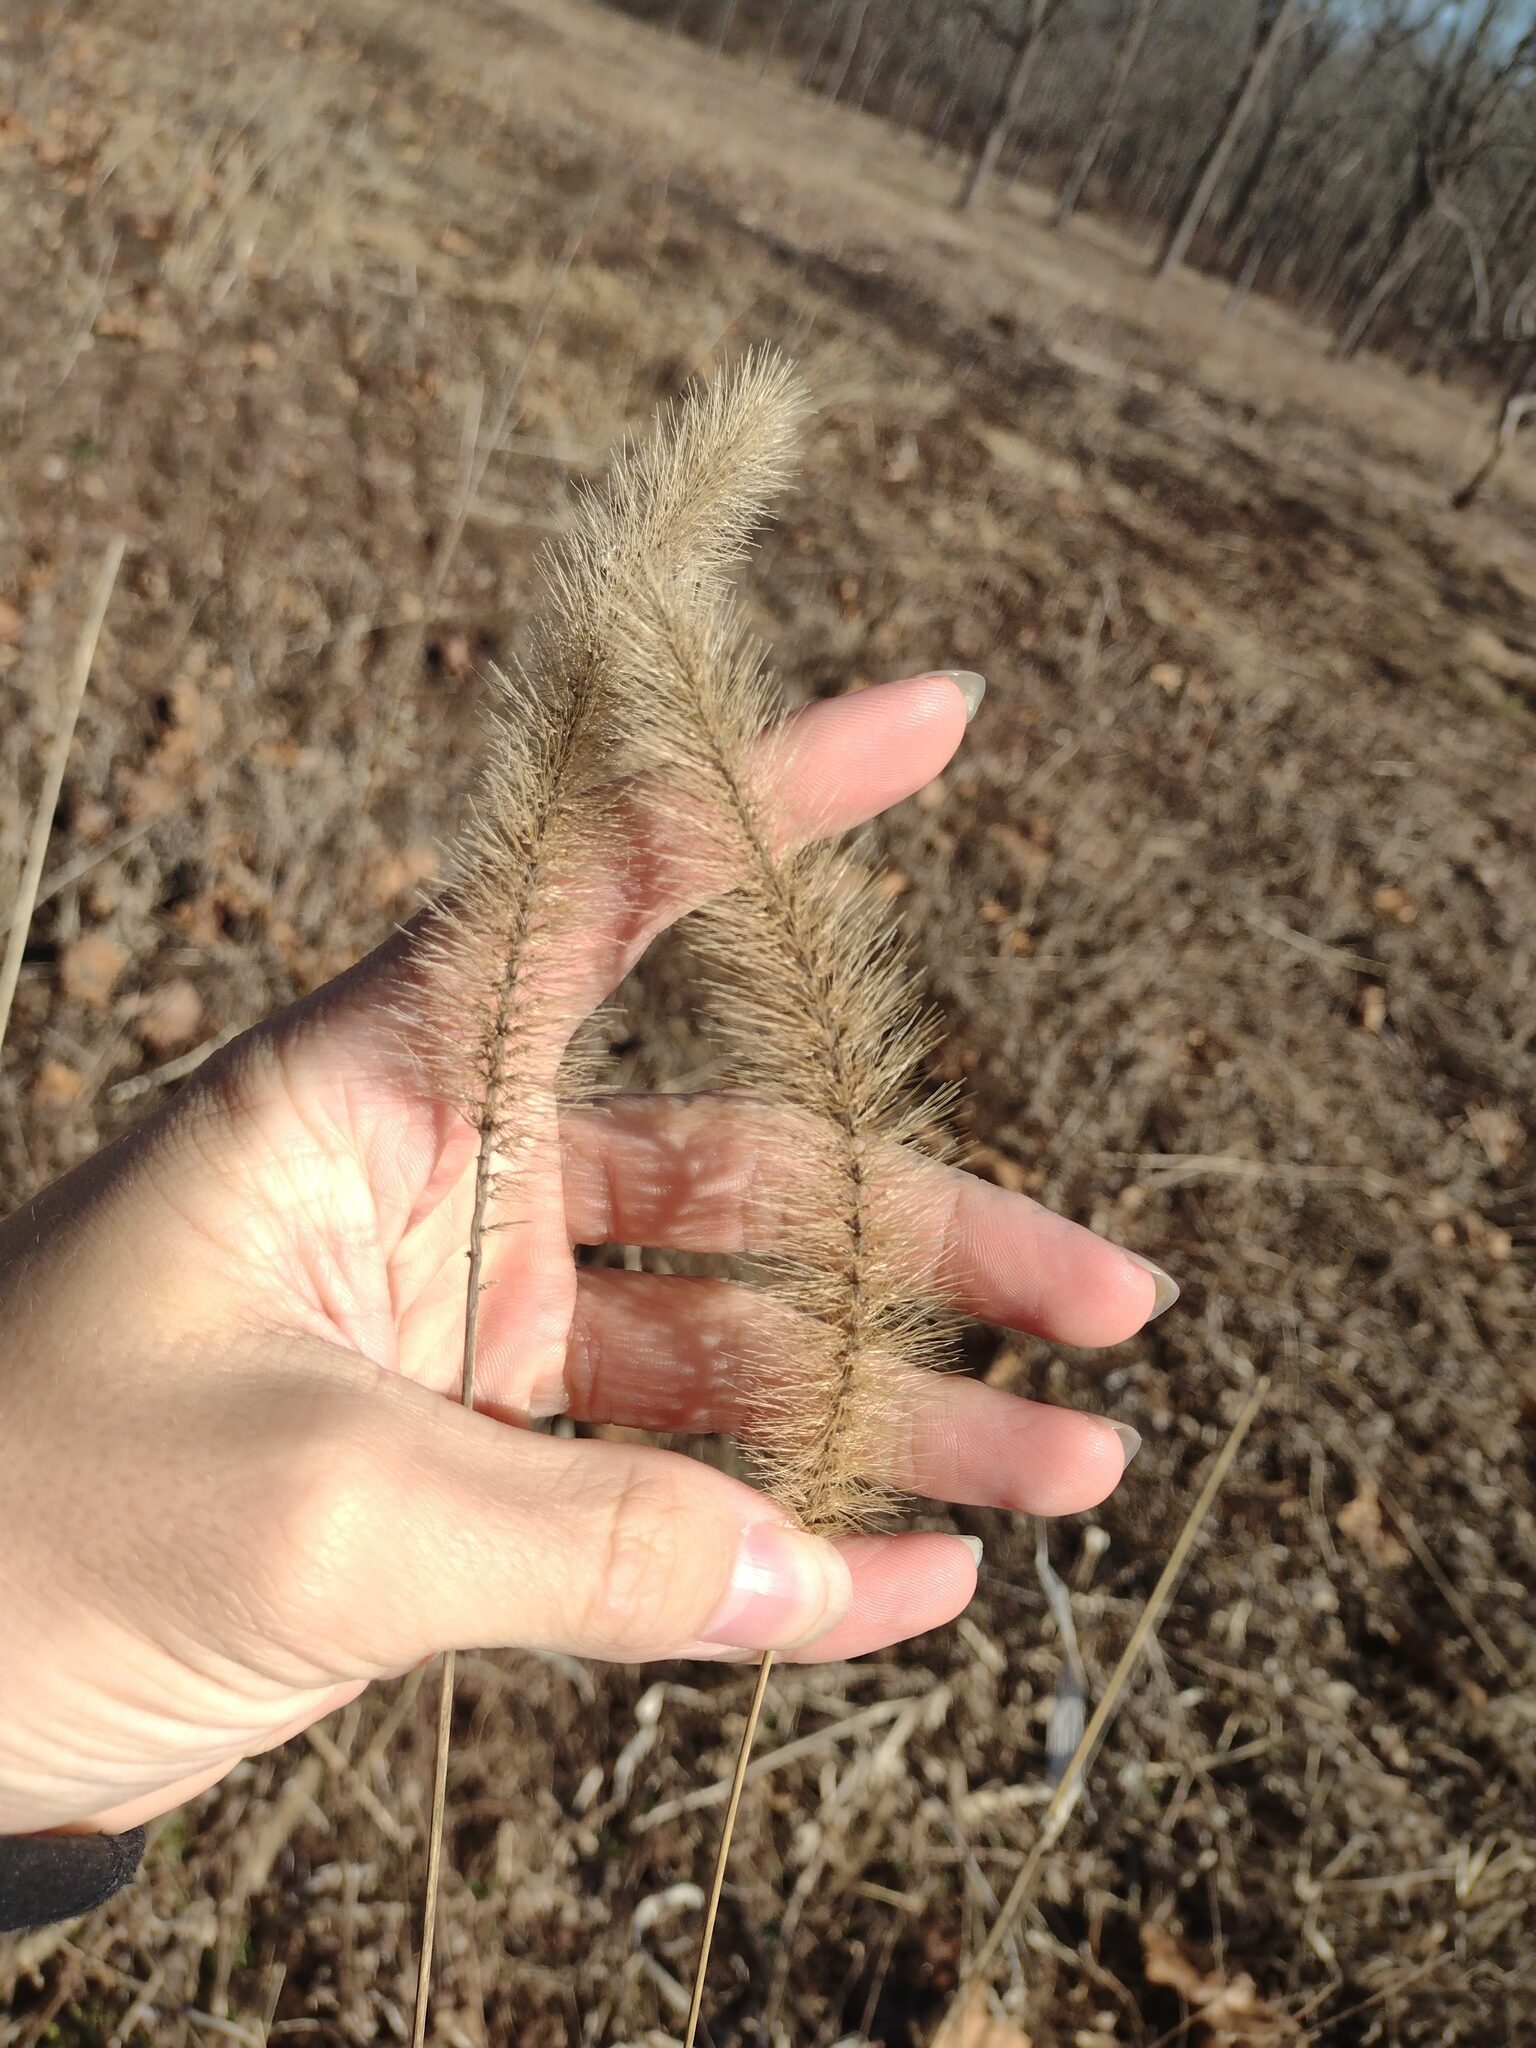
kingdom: Plantae
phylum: Tracheophyta
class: Liliopsida
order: Poales
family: Poaceae
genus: Setaria
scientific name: Setaria faberi
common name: Nodding bristle-grass
